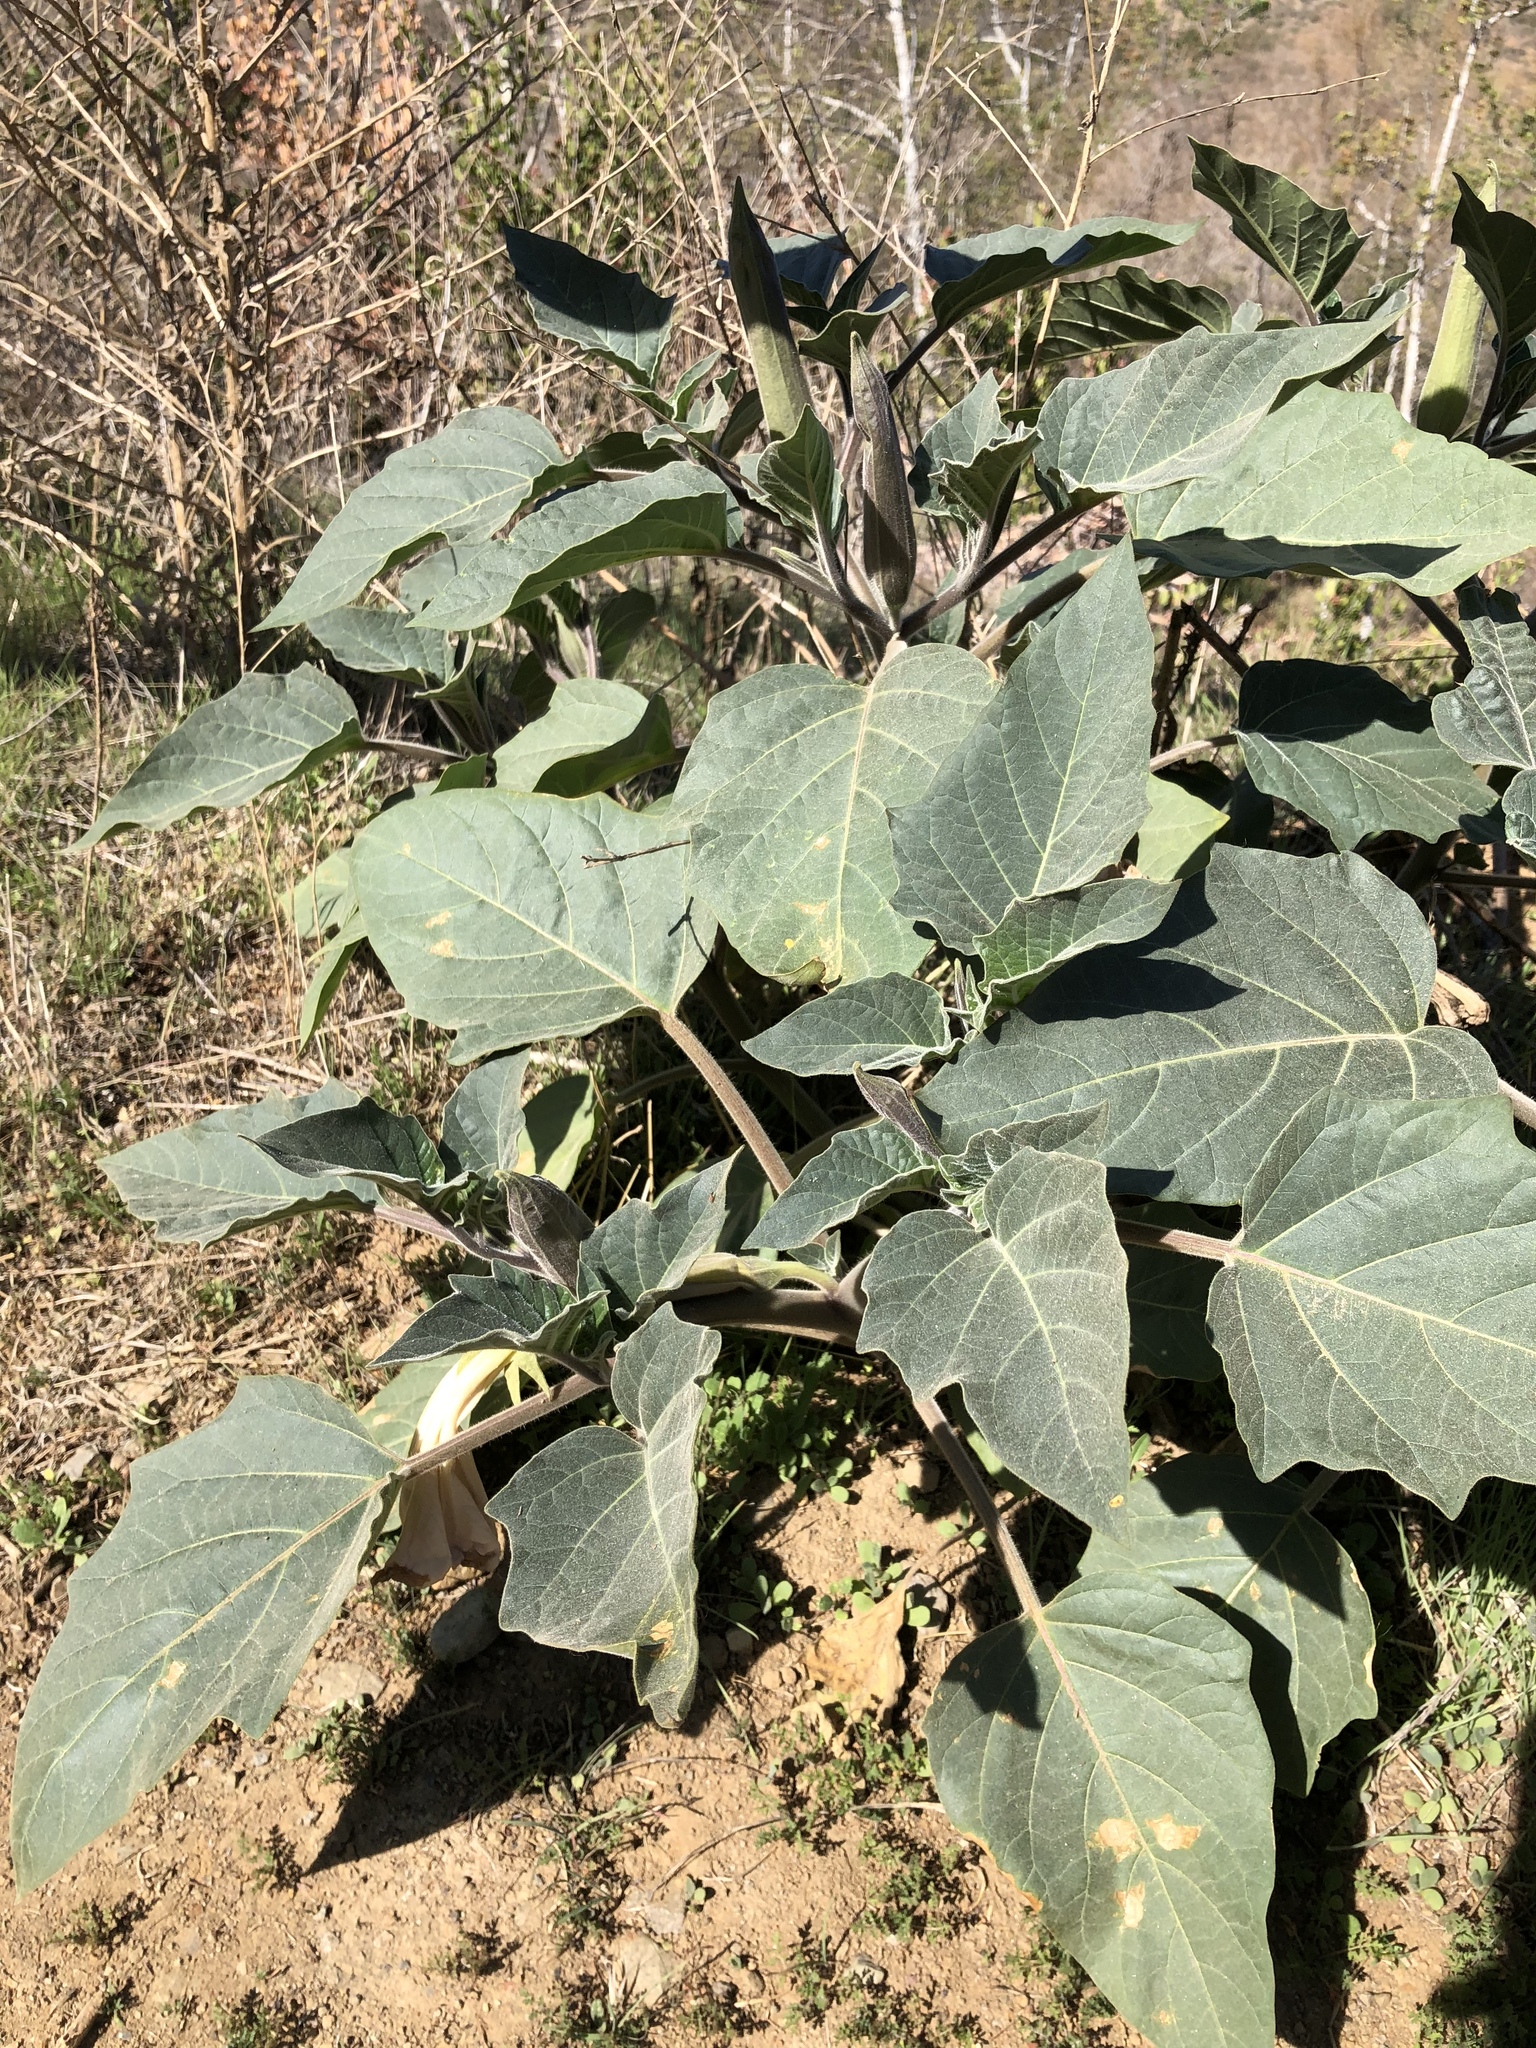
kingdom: Plantae
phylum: Tracheophyta
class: Magnoliopsida
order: Solanales
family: Solanaceae
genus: Datura
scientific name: Datura wrightii
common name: Sacred thorn-apple
